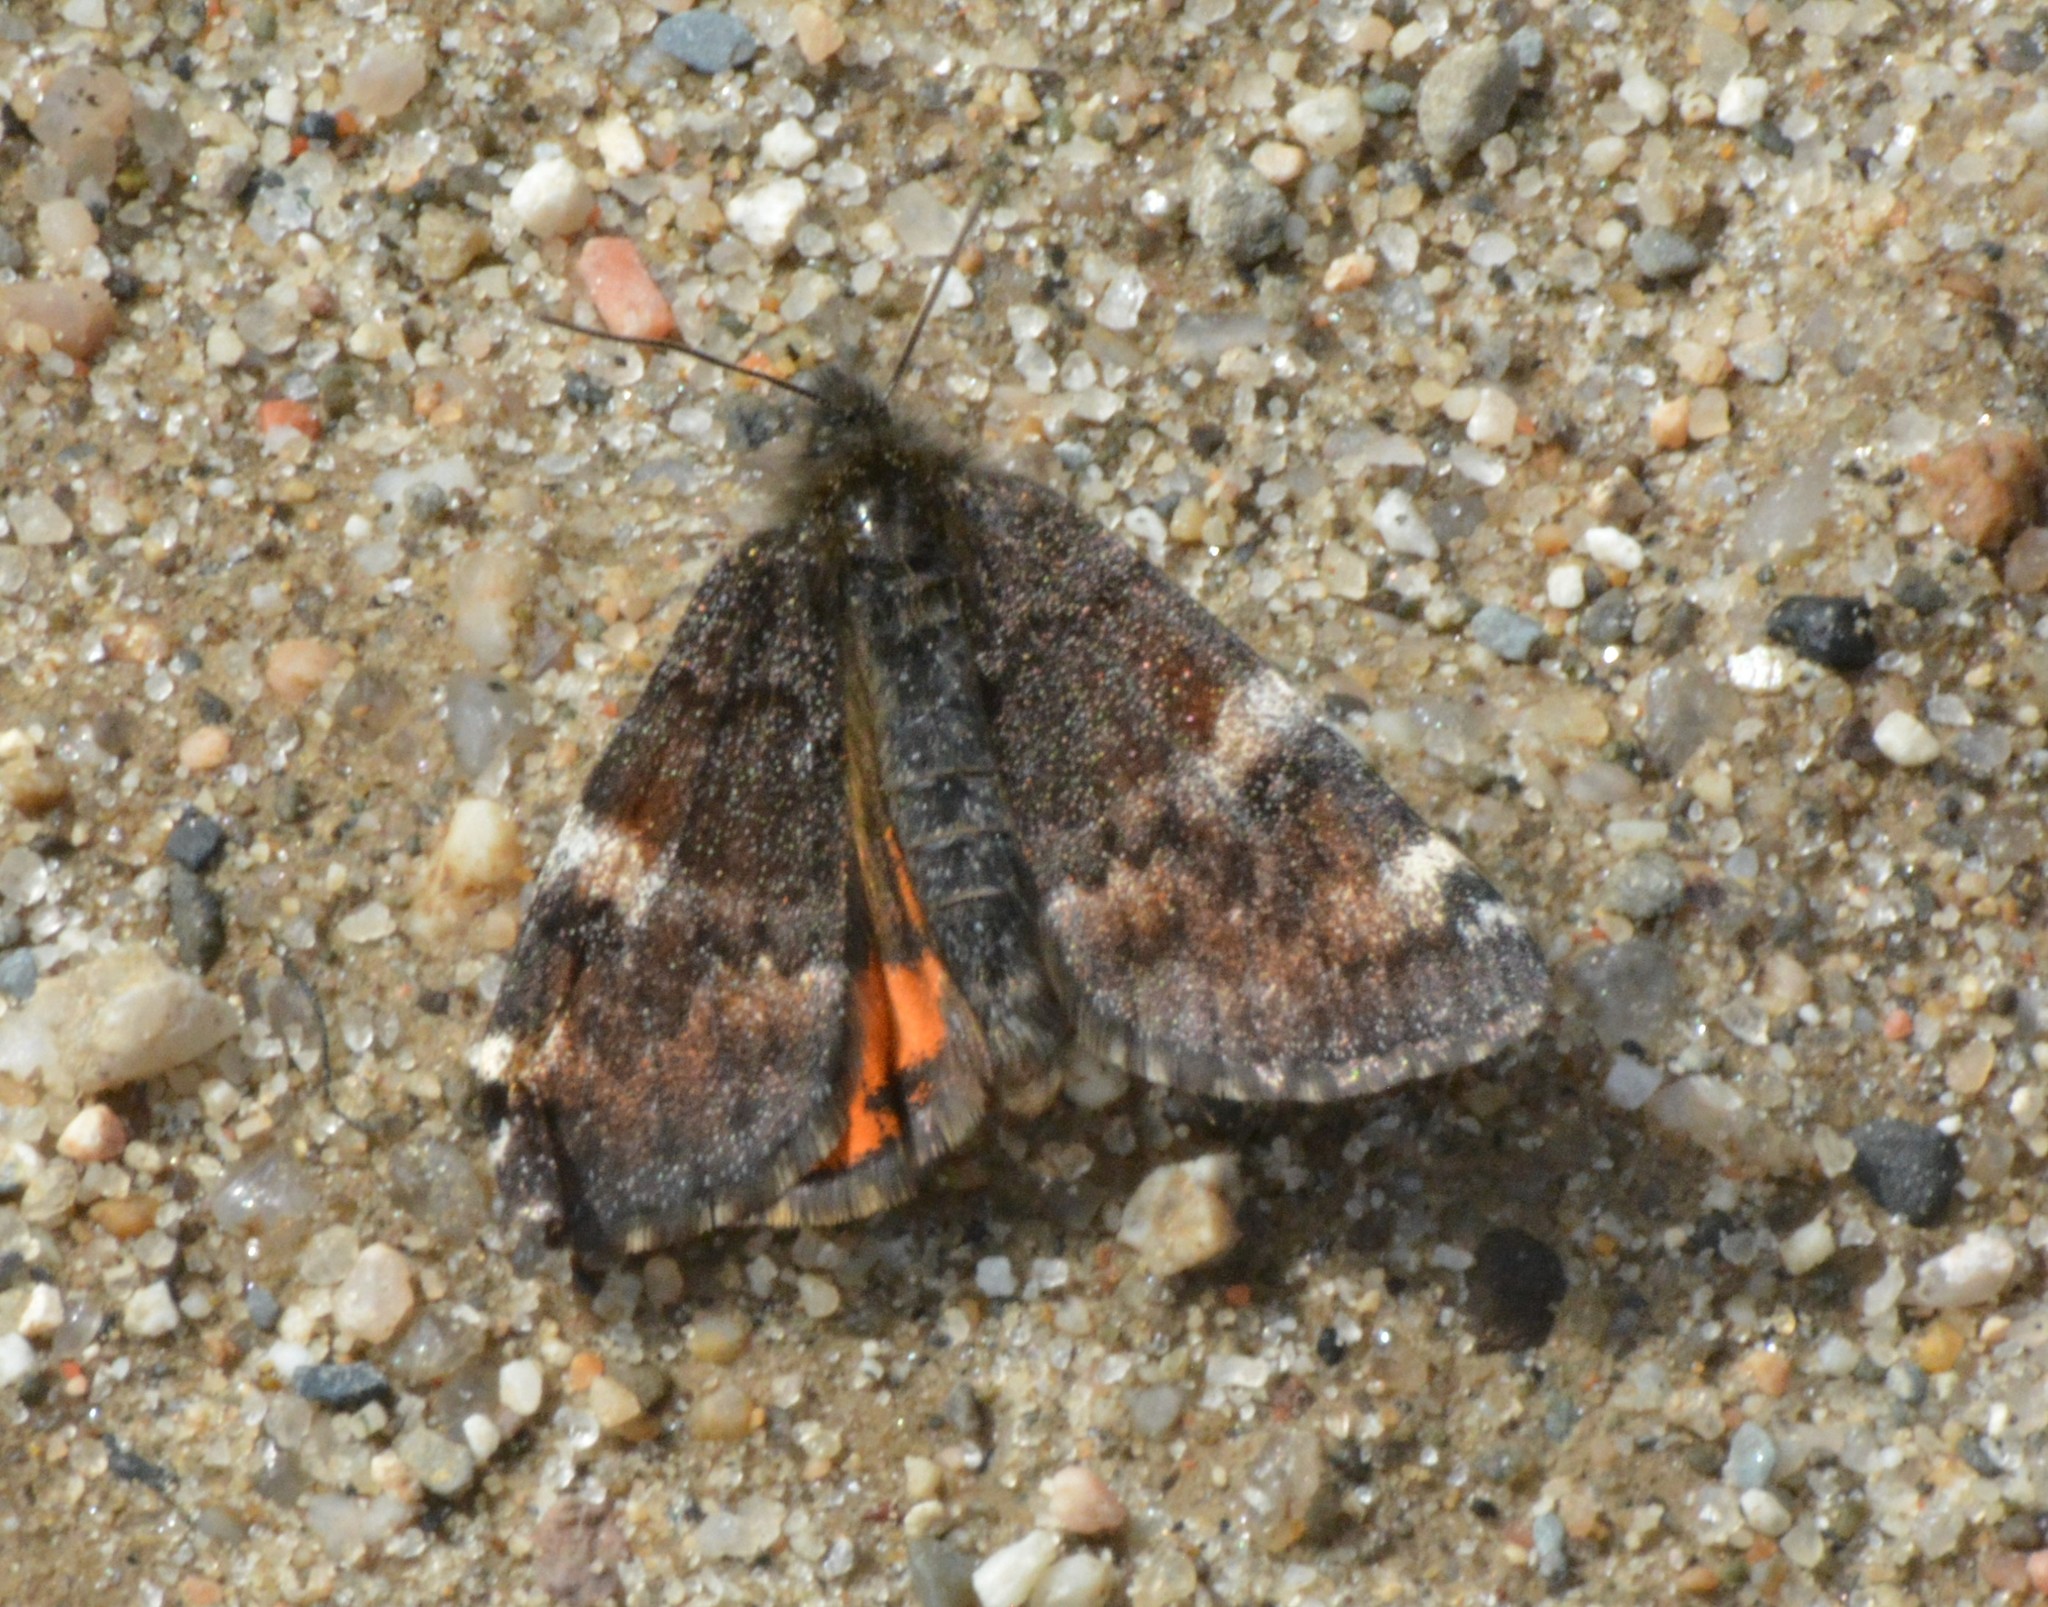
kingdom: Animalia
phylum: Arthropoda
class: Insecta
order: Lepidoptera
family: Geometridae
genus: Archiearis
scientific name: Archiearis infans
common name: First born geometer
